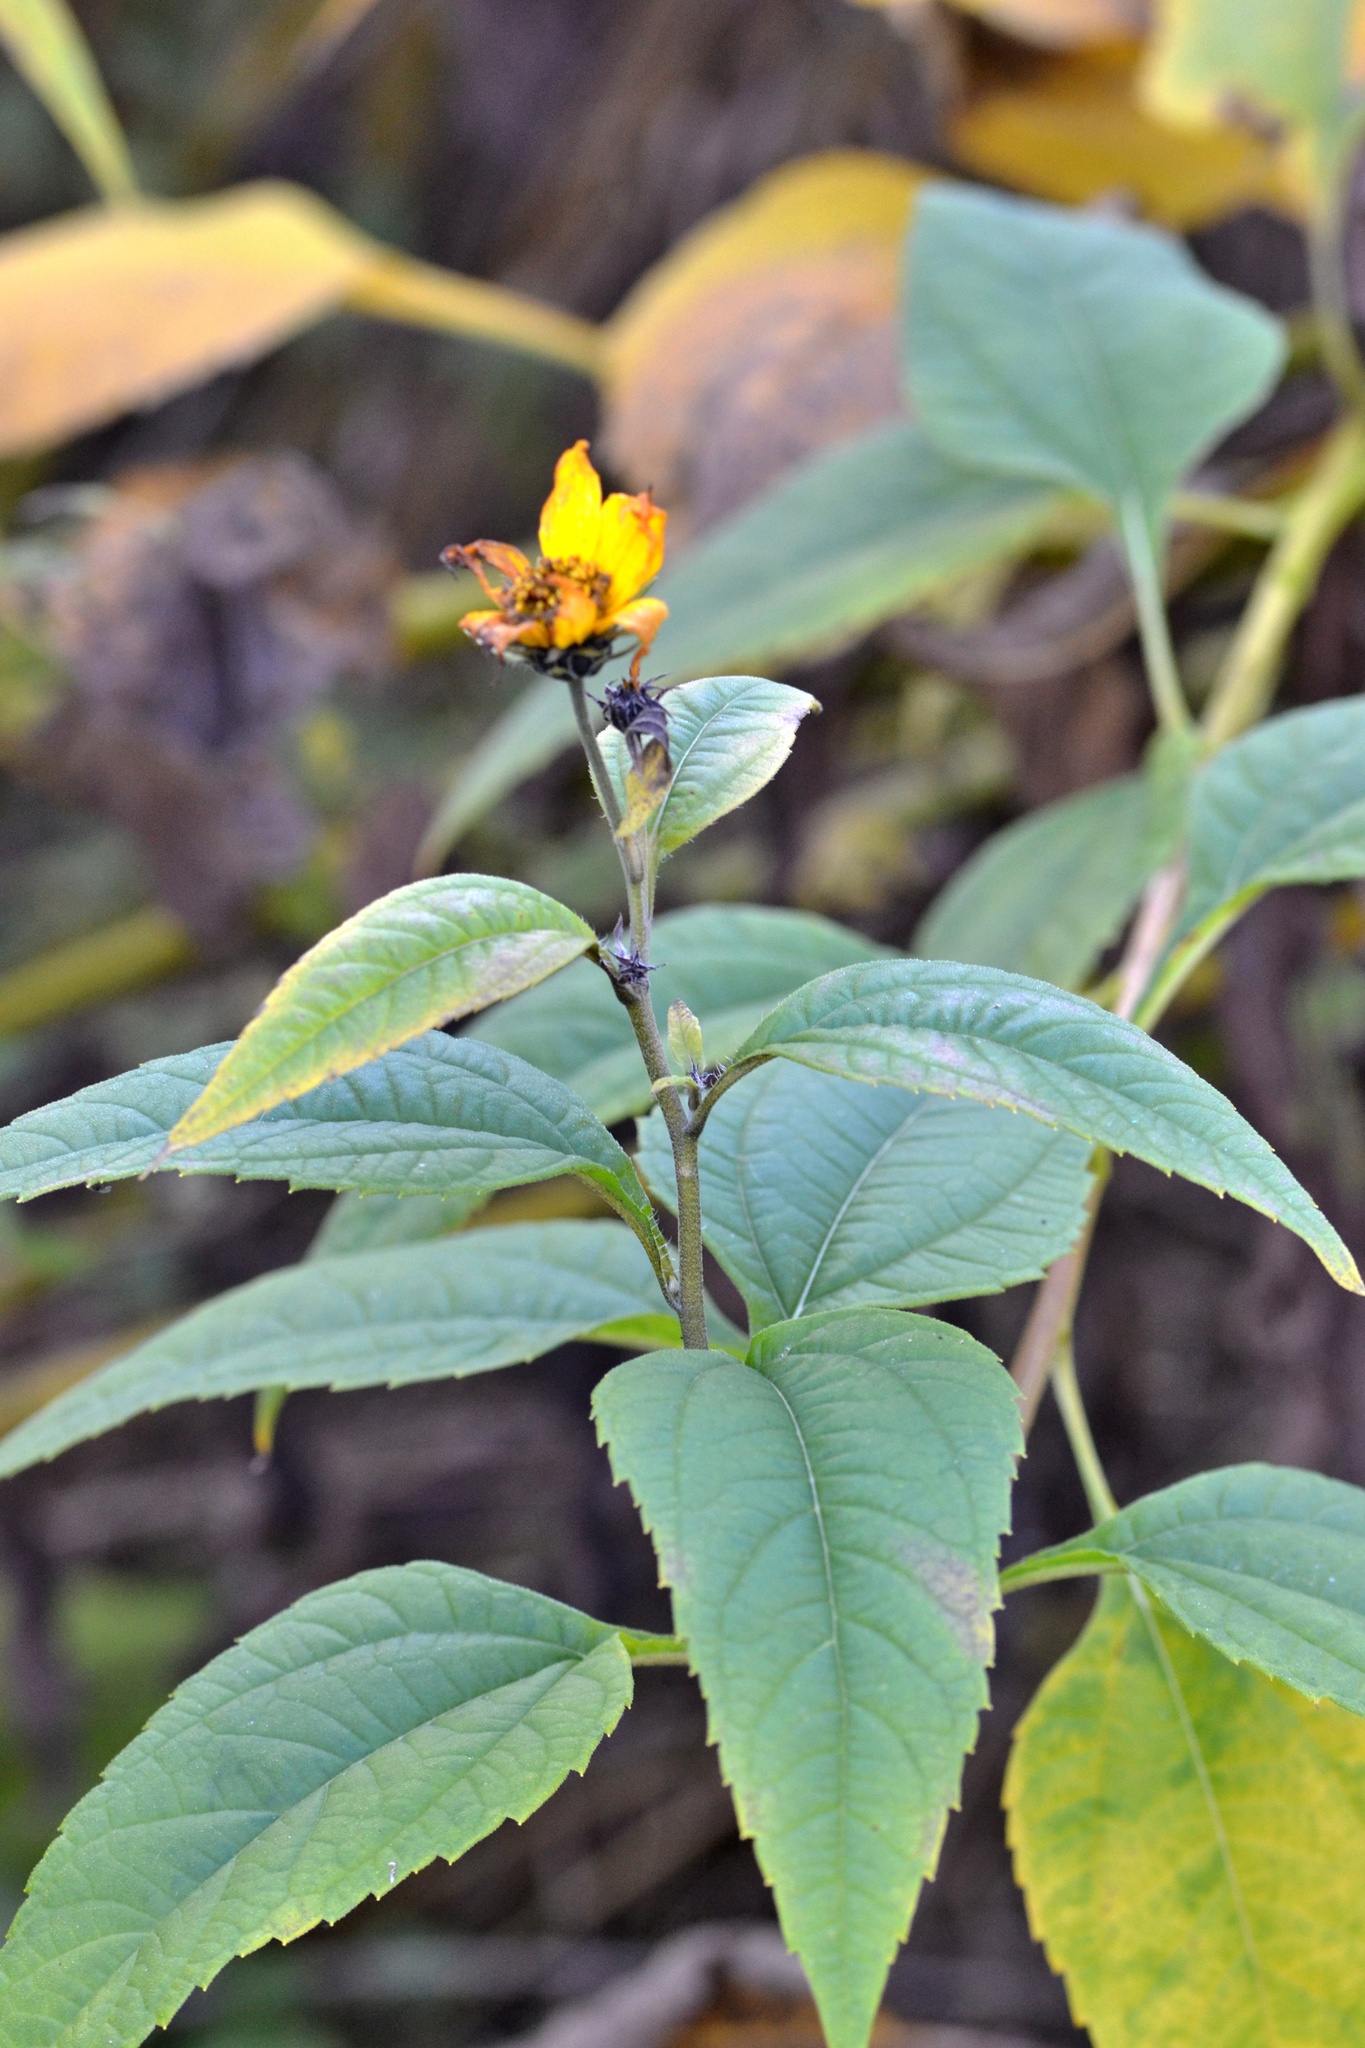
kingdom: Plantae
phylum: Tracheophyta
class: Magnoliopsida
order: Asterales
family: Asteraceae
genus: Helianthus
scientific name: Helianthus tuberosus
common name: Jerusalem artichoke
